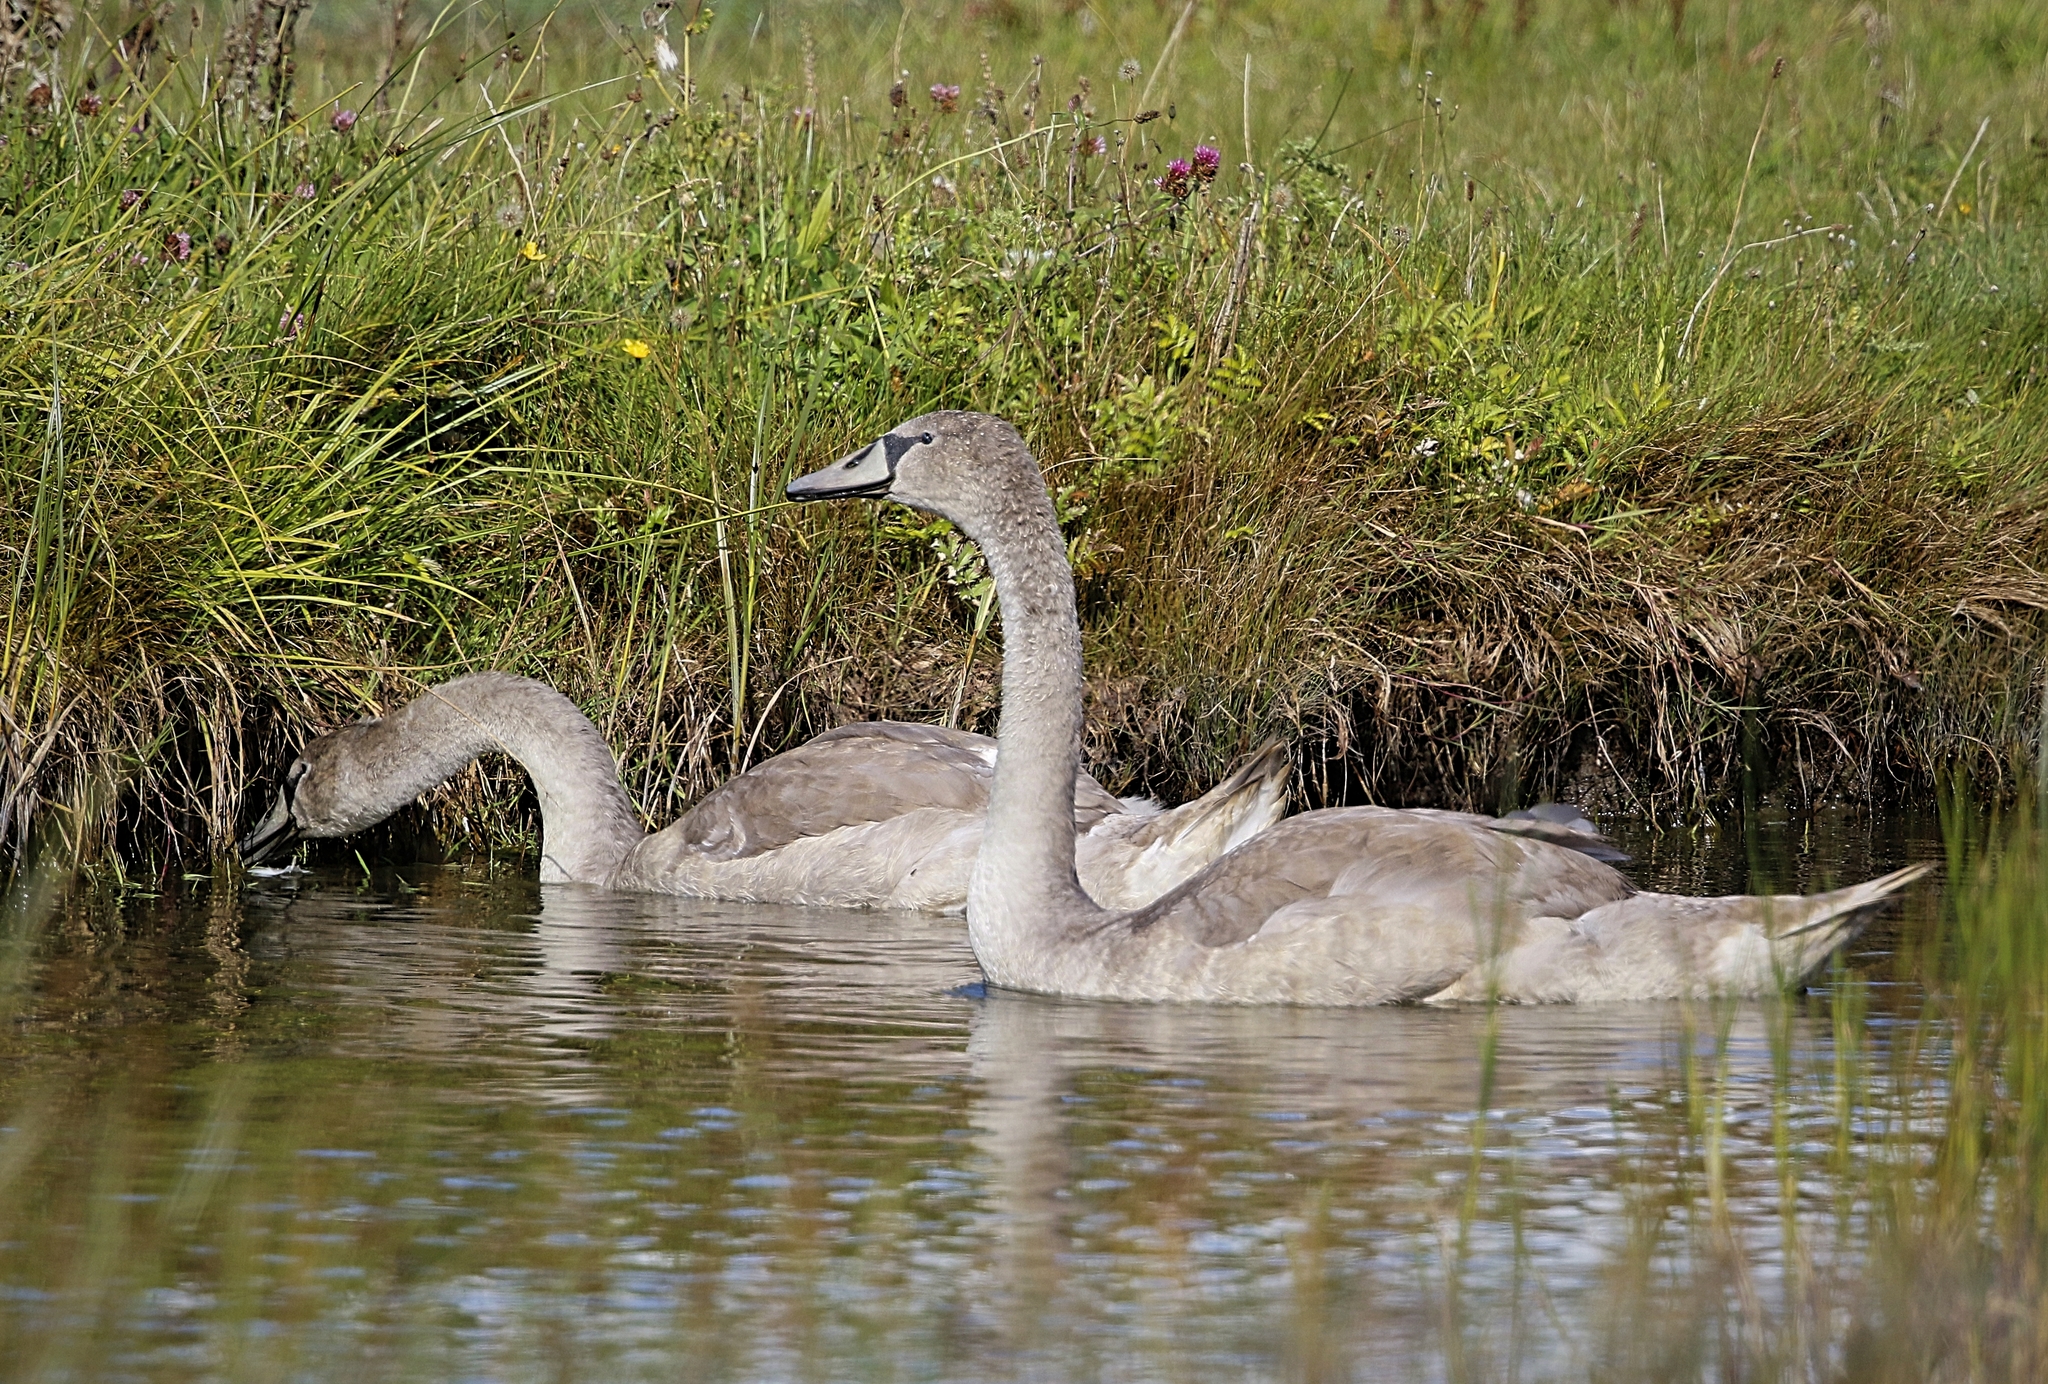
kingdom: Animalia
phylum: Chordata
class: Aves
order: Anseriformes
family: Anatidae
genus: Cygnus
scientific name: Cygnus olor
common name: Mute swan
